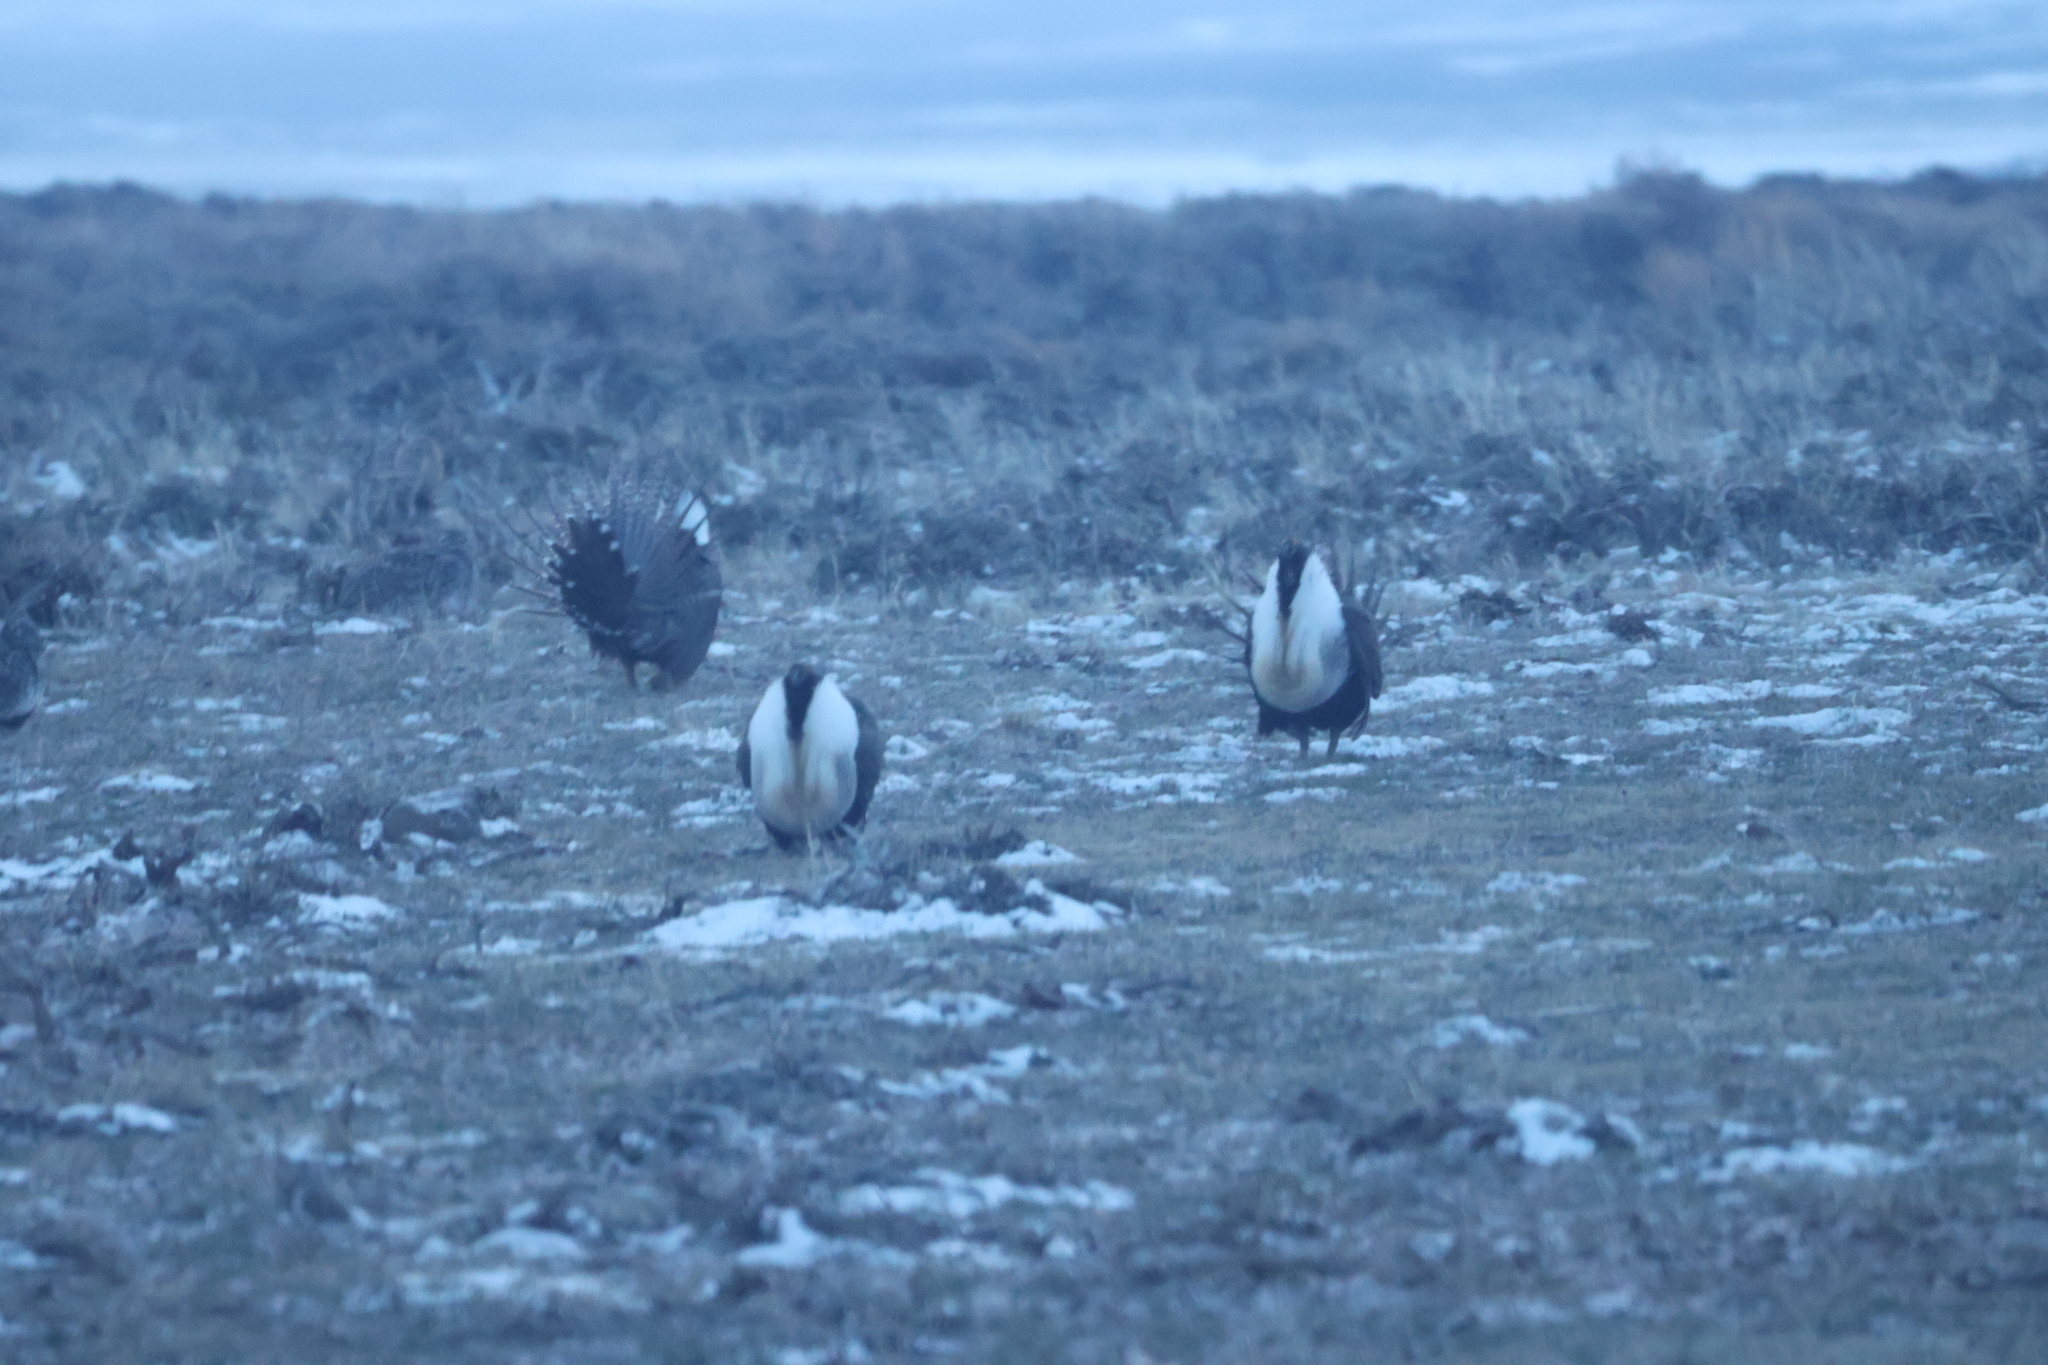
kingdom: Animalia
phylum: Chordata
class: Aves
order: Galliformes
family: Phasianidae
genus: Centrocercus
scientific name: Centrocercus urophasianus
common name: Sage grouse
